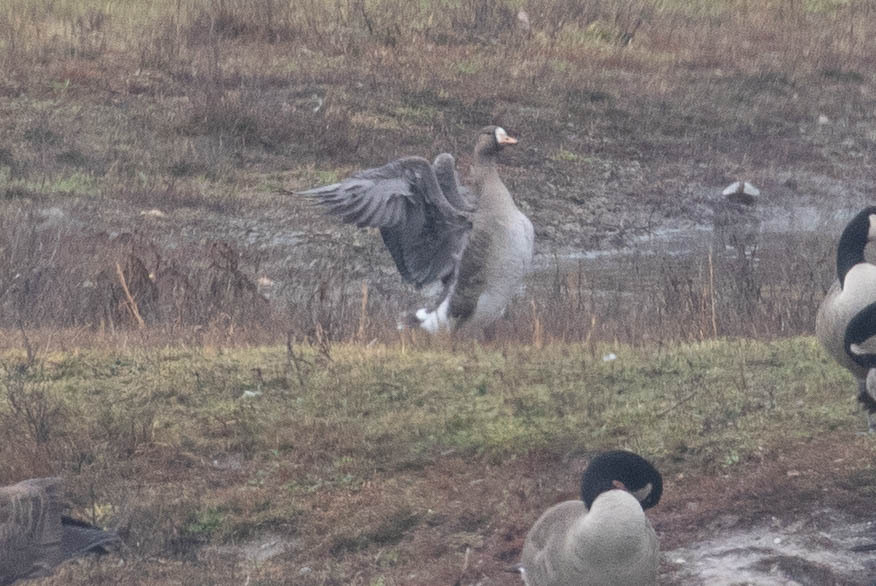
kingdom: Animalia
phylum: Chordata
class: Aves
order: Anseriformes
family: Anatidae
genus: Anser
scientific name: Anser albifrons
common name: Greater white-fronted goose
